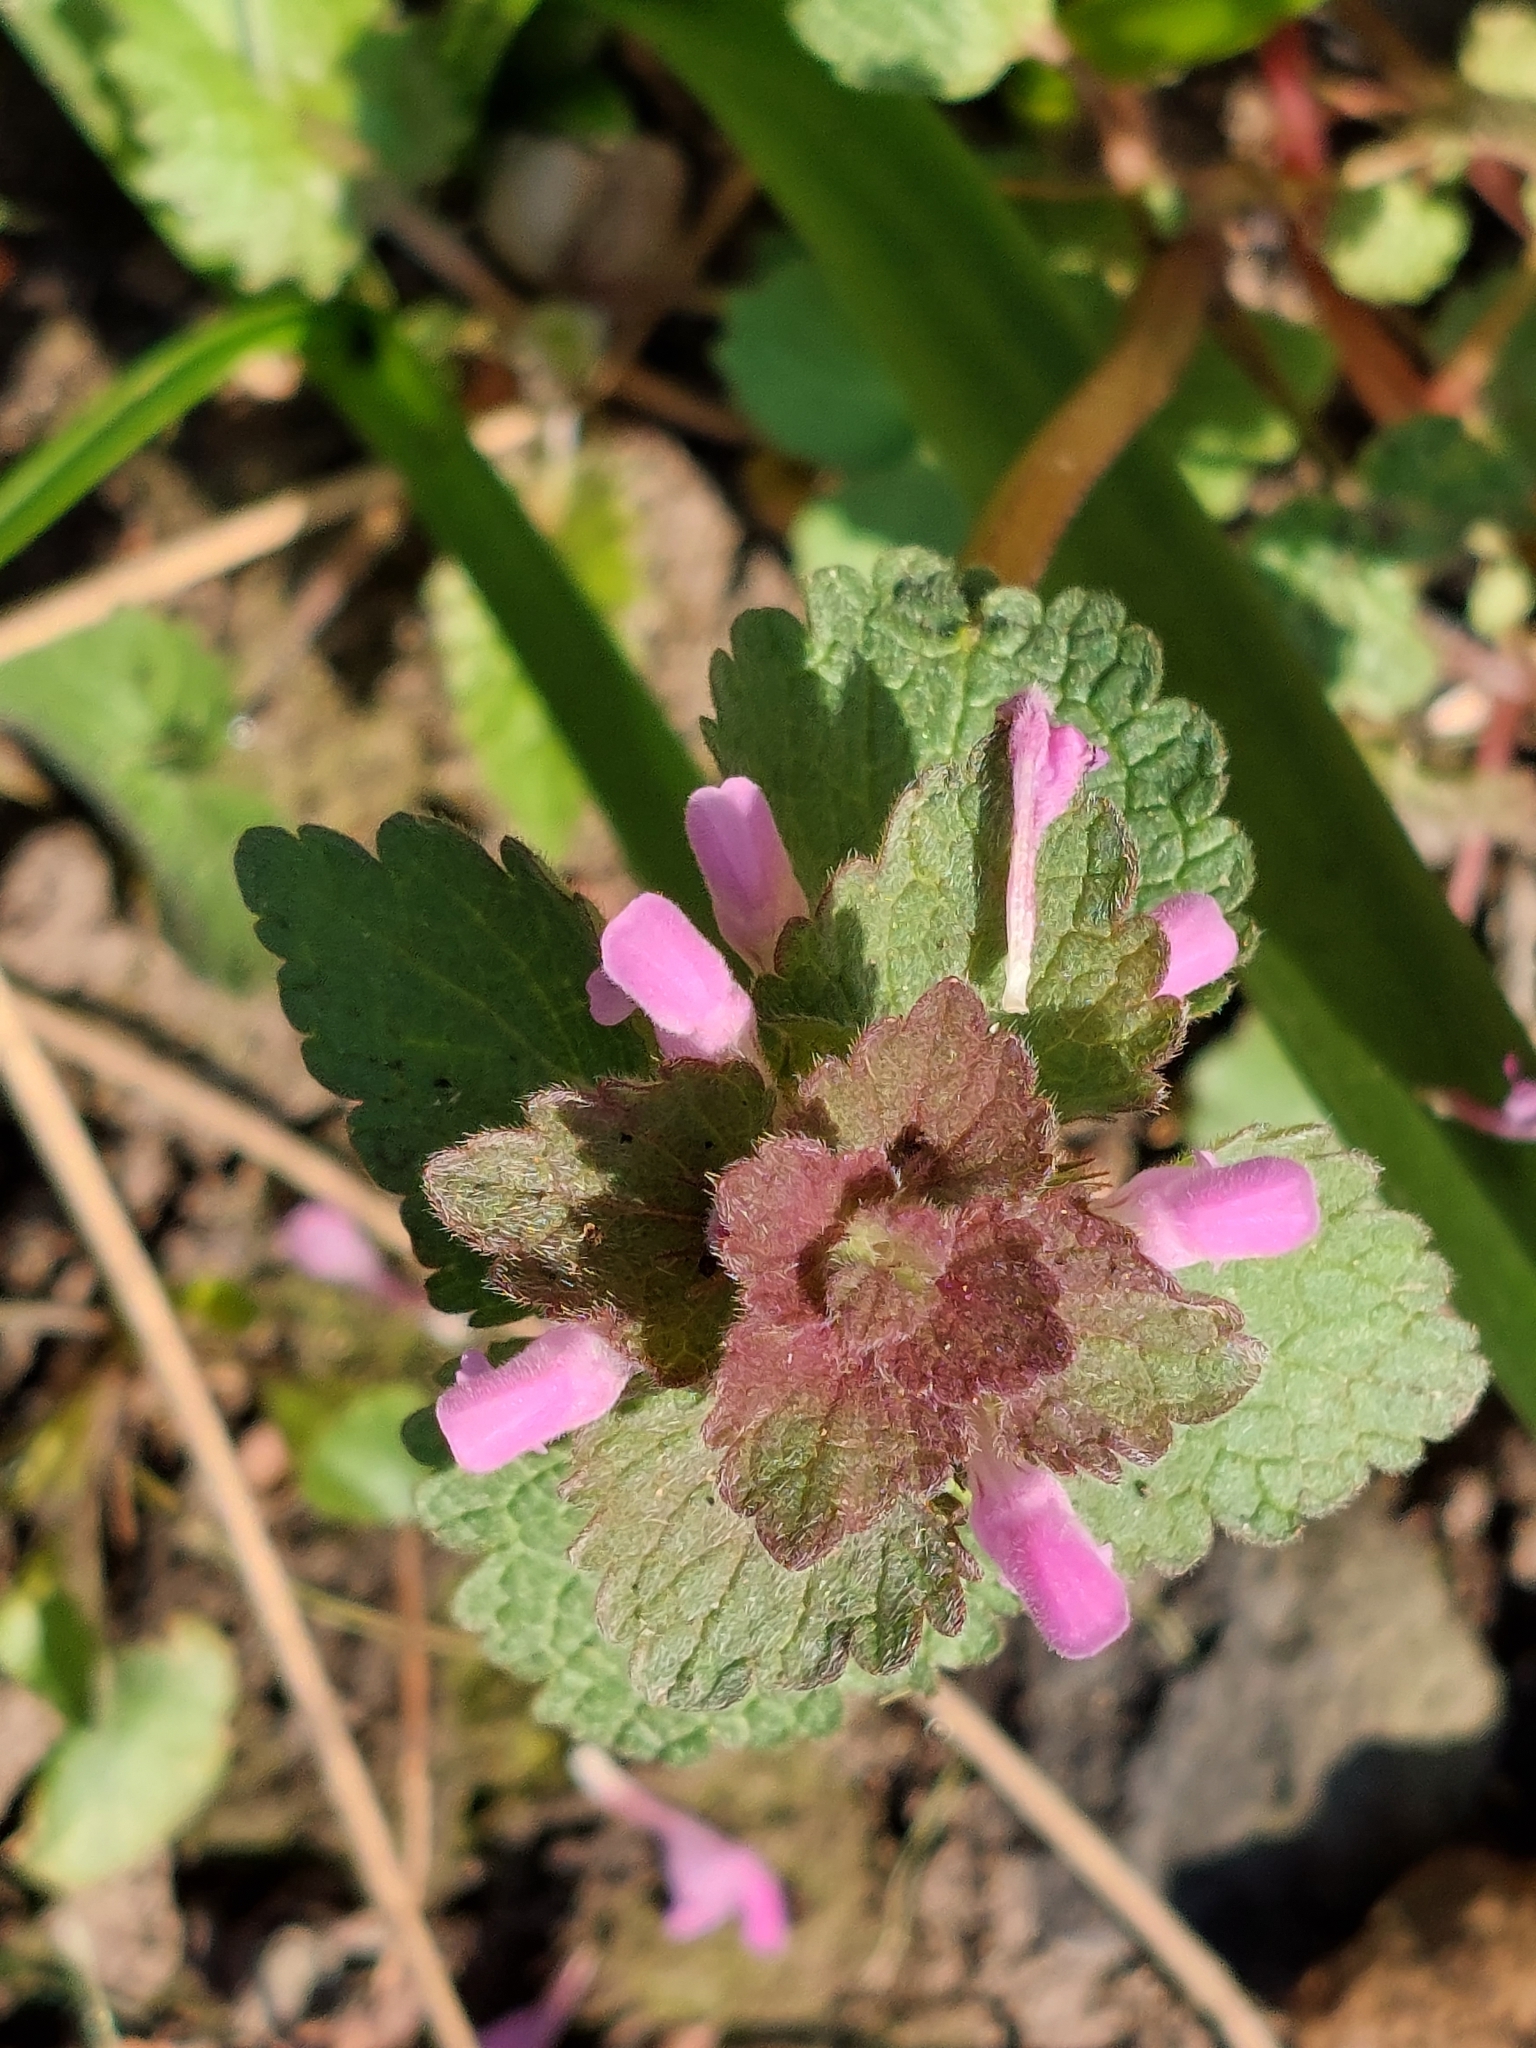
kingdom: Plantae
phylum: Tracheophyta
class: Magnoliopsida
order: Lamiales
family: Lamiaceae
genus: Lamium
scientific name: Lamium purpureum
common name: Red dead-nettle
